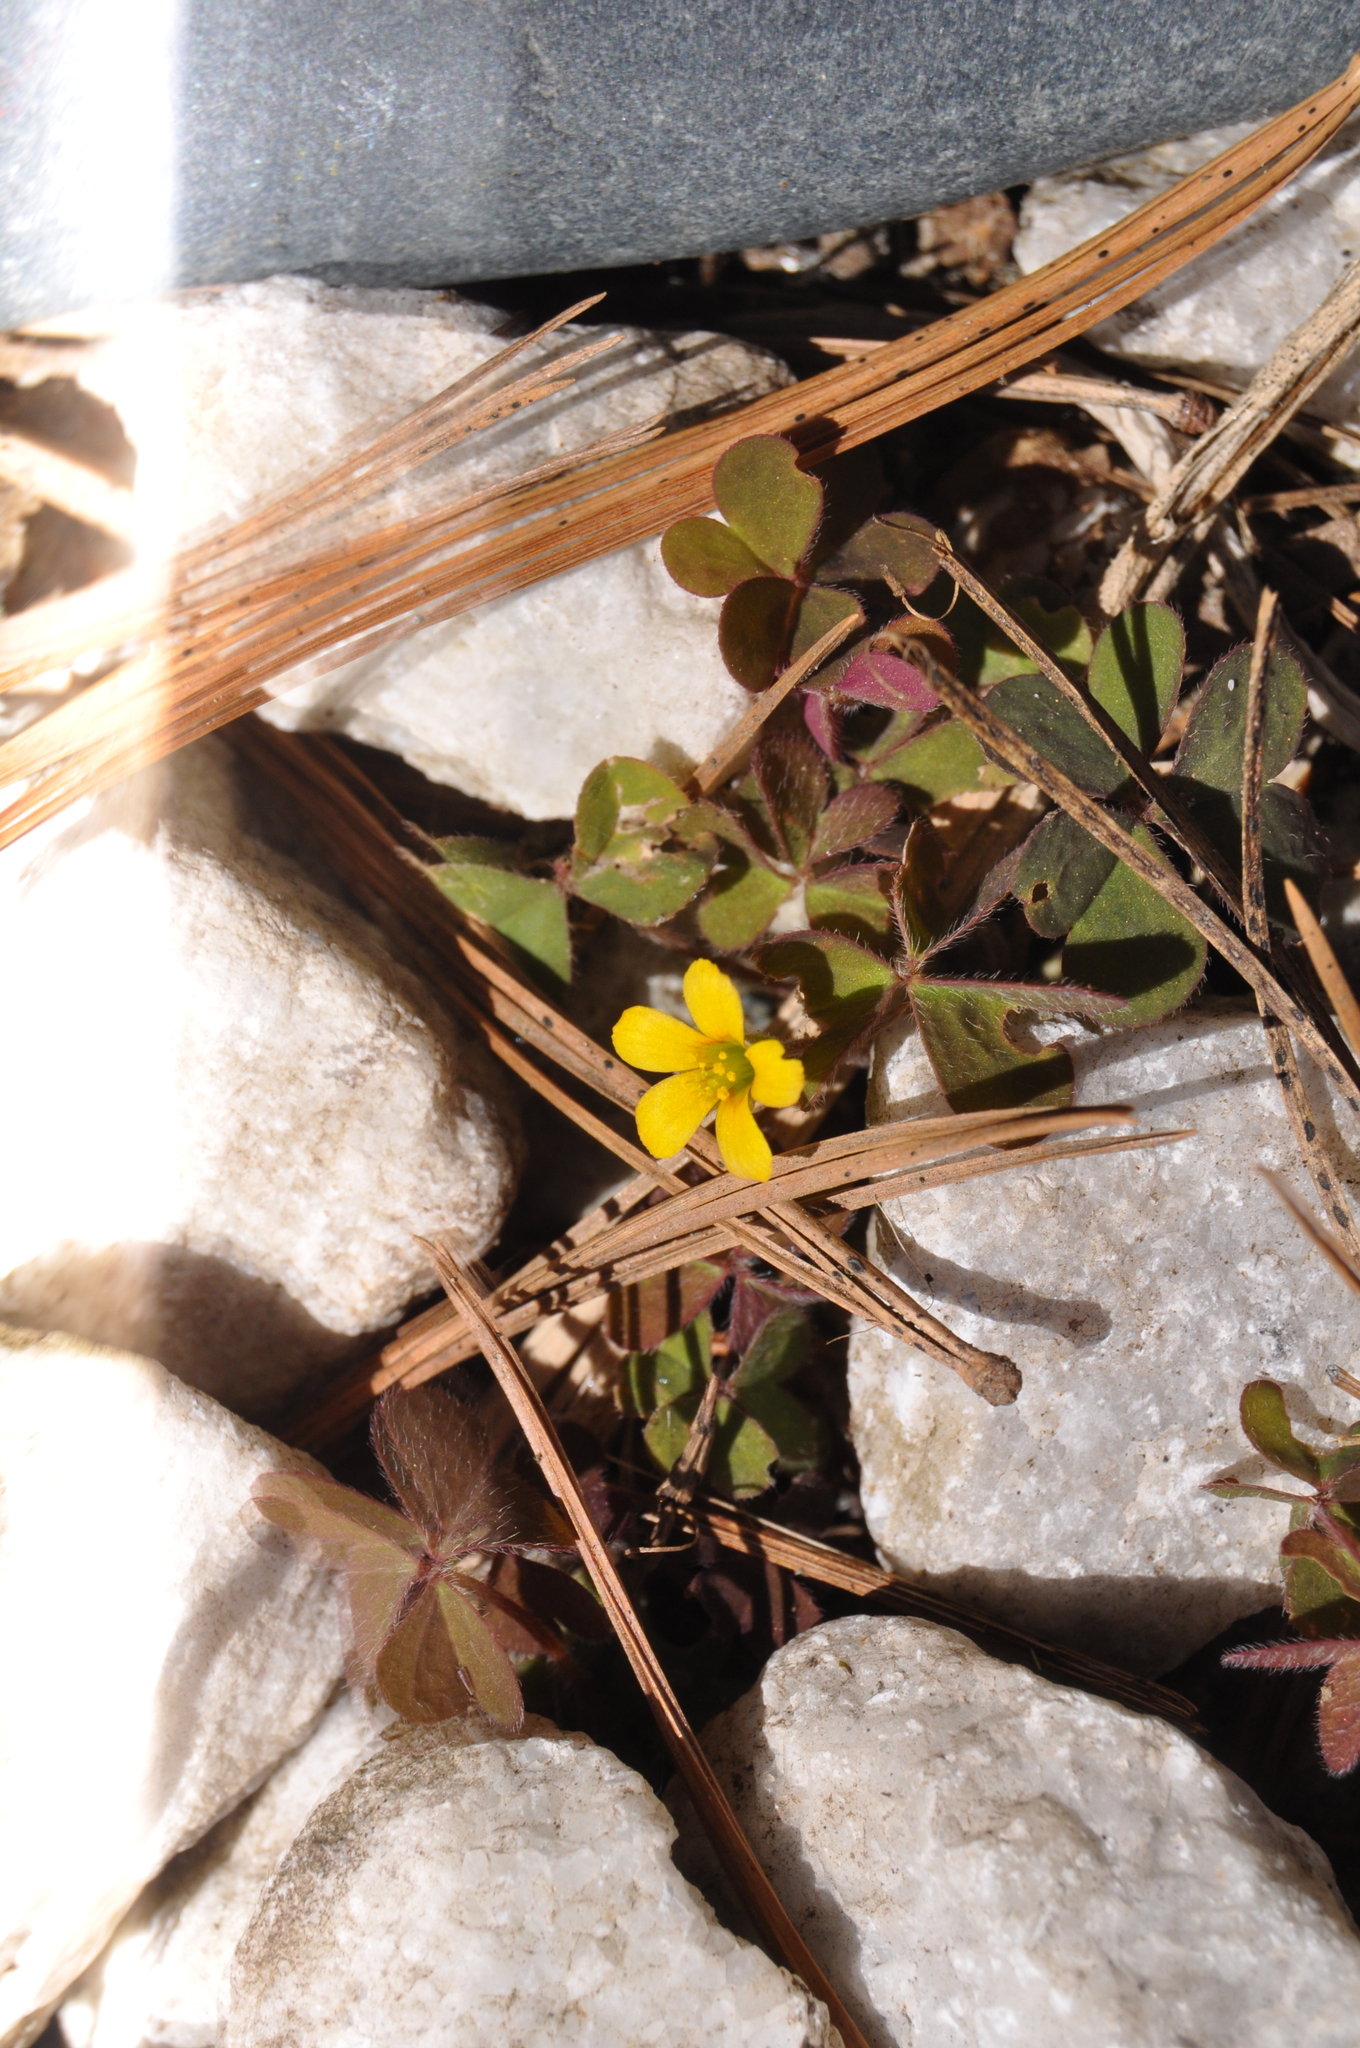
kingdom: Plantae
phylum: Tracheophyta
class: Magnoliopsida
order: Oxalidales
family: Oxalidaceae
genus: Oxalis
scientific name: Oxalis corniculata
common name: Procumbent yellow-sorrel
